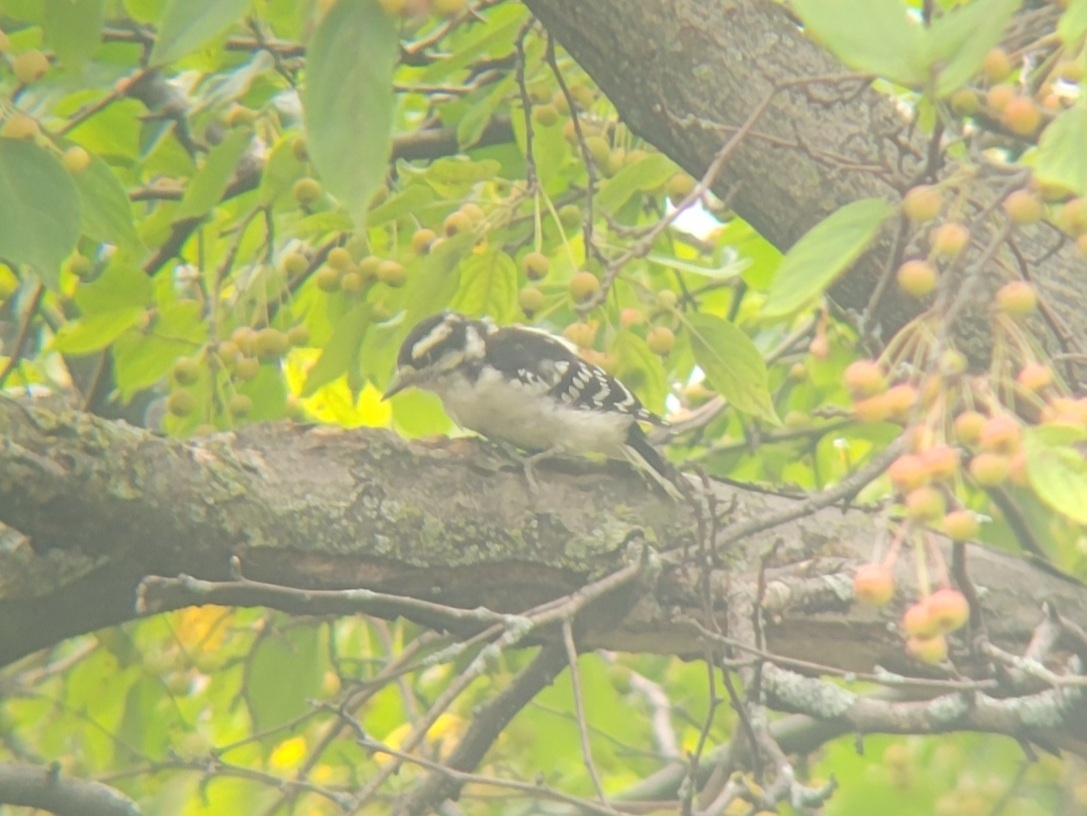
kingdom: Animalia
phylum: Chordata
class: Aves
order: Piciformes
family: Picidae
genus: Dryobates
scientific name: Dryobates pubescens
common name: Downy woodpecker
